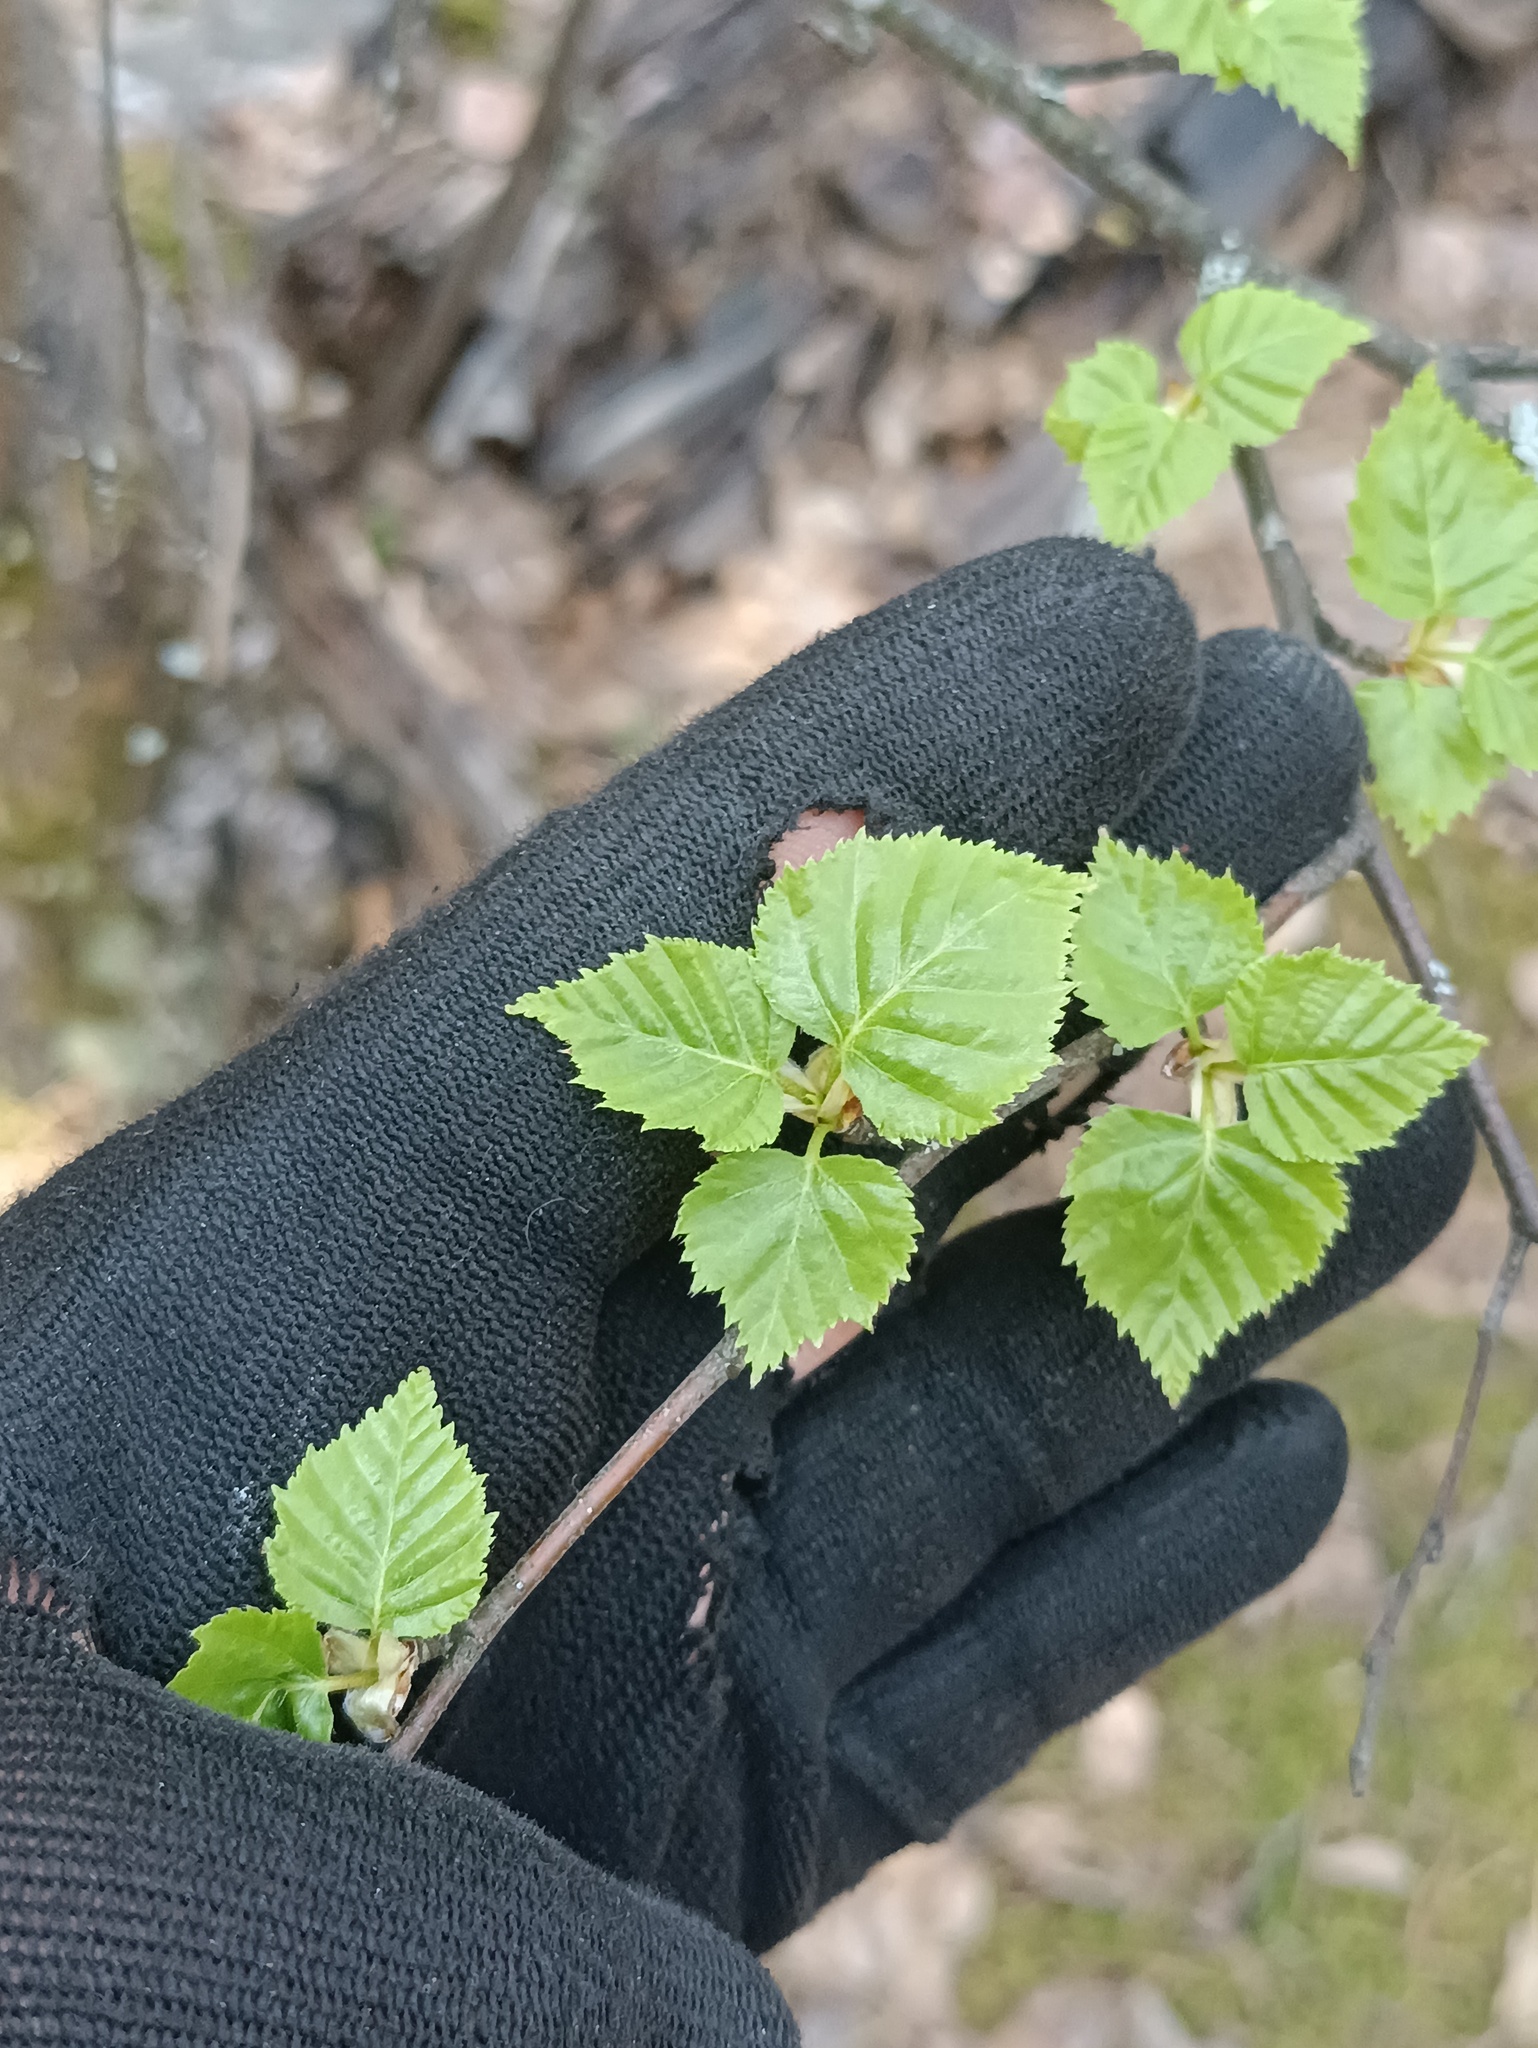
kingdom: Plantae
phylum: Tracheophyta
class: Magnoliopsida
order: Fagales
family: Betulaceae
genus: Betula
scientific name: Betula pubescens
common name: Downy birch
